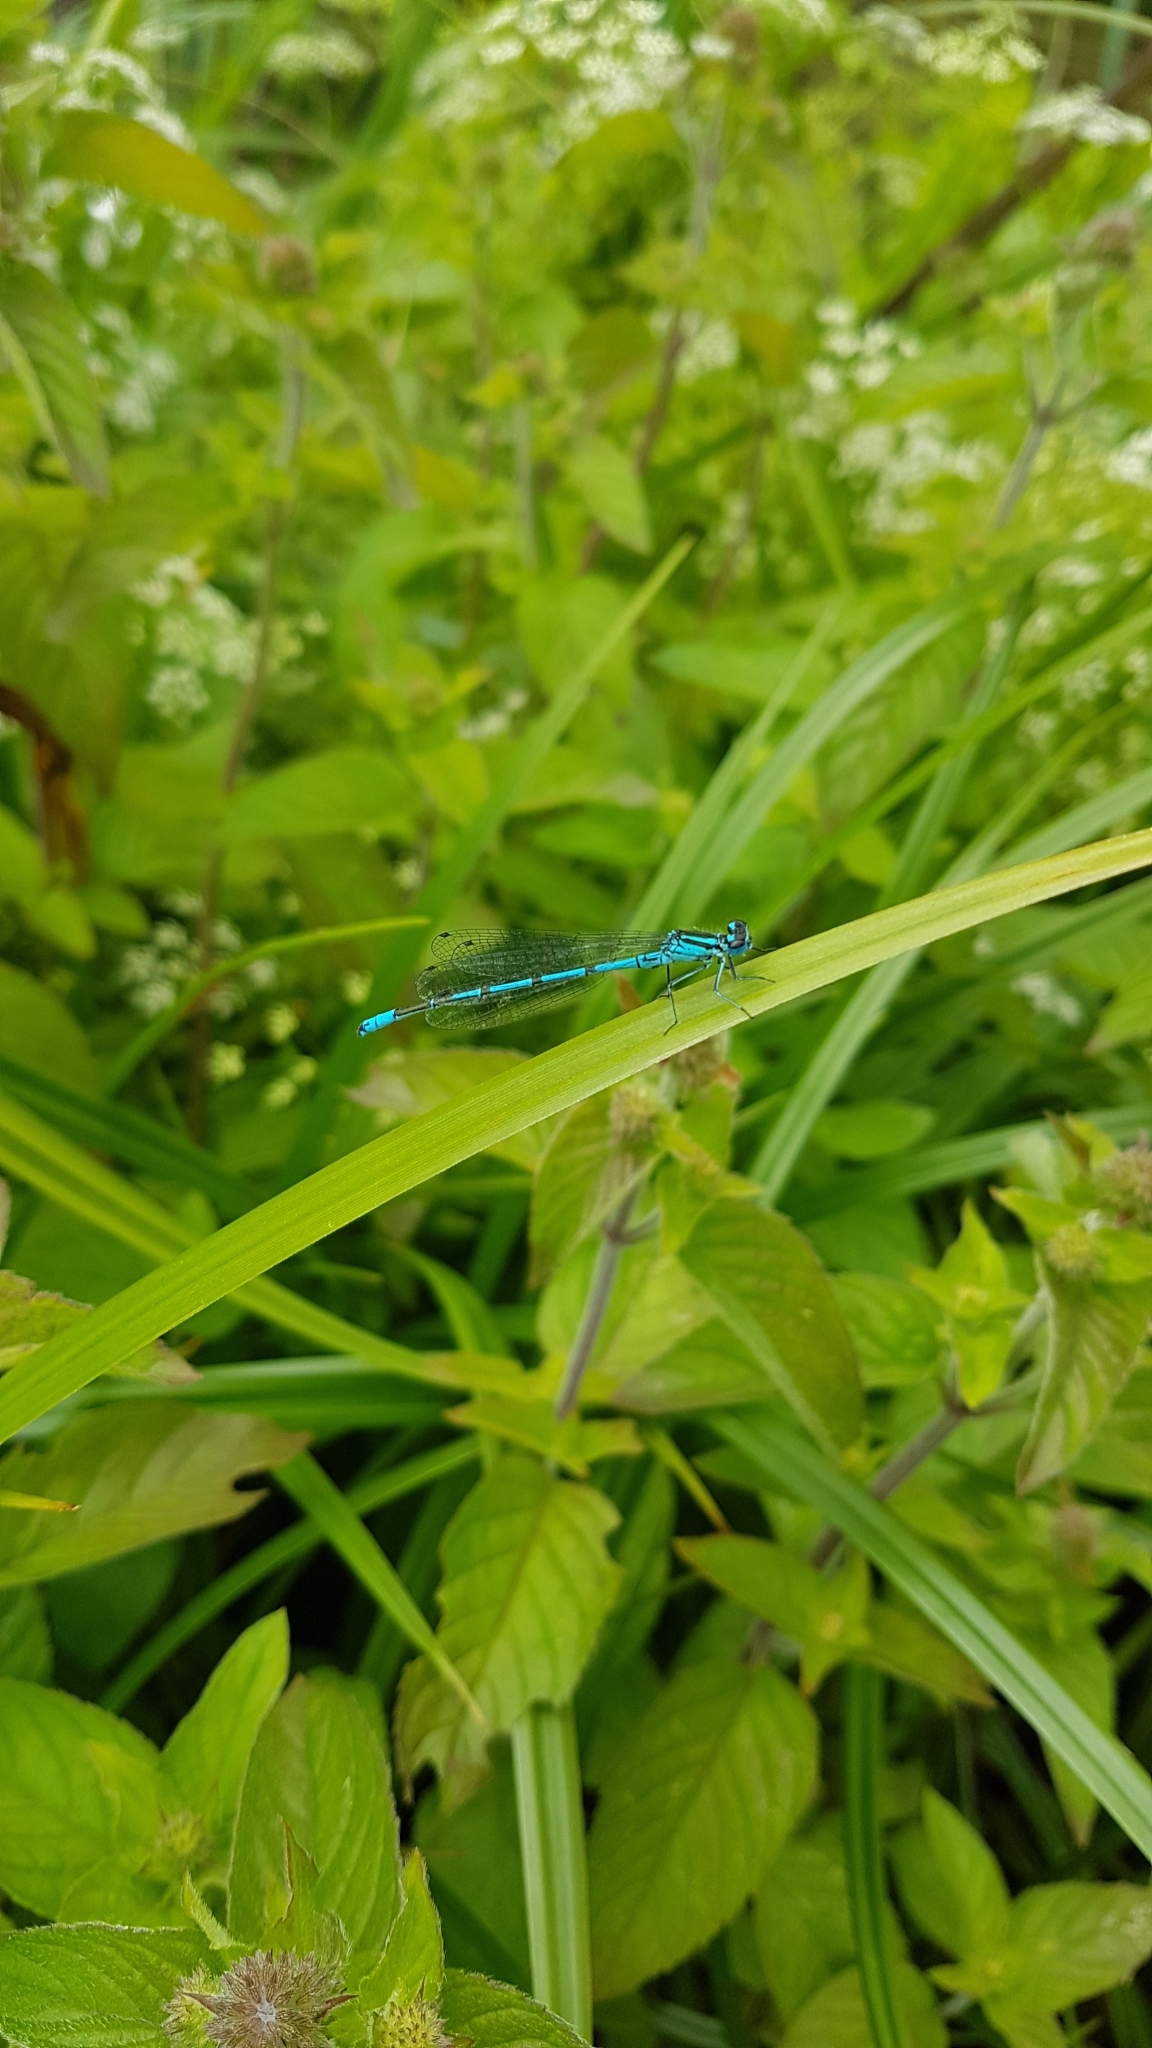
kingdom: Animalia
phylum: Arthropoda
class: Insecta
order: Odonata
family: Coenagrionidae
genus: Coenagrion
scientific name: Coenagrion puella
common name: Azure damselfly
